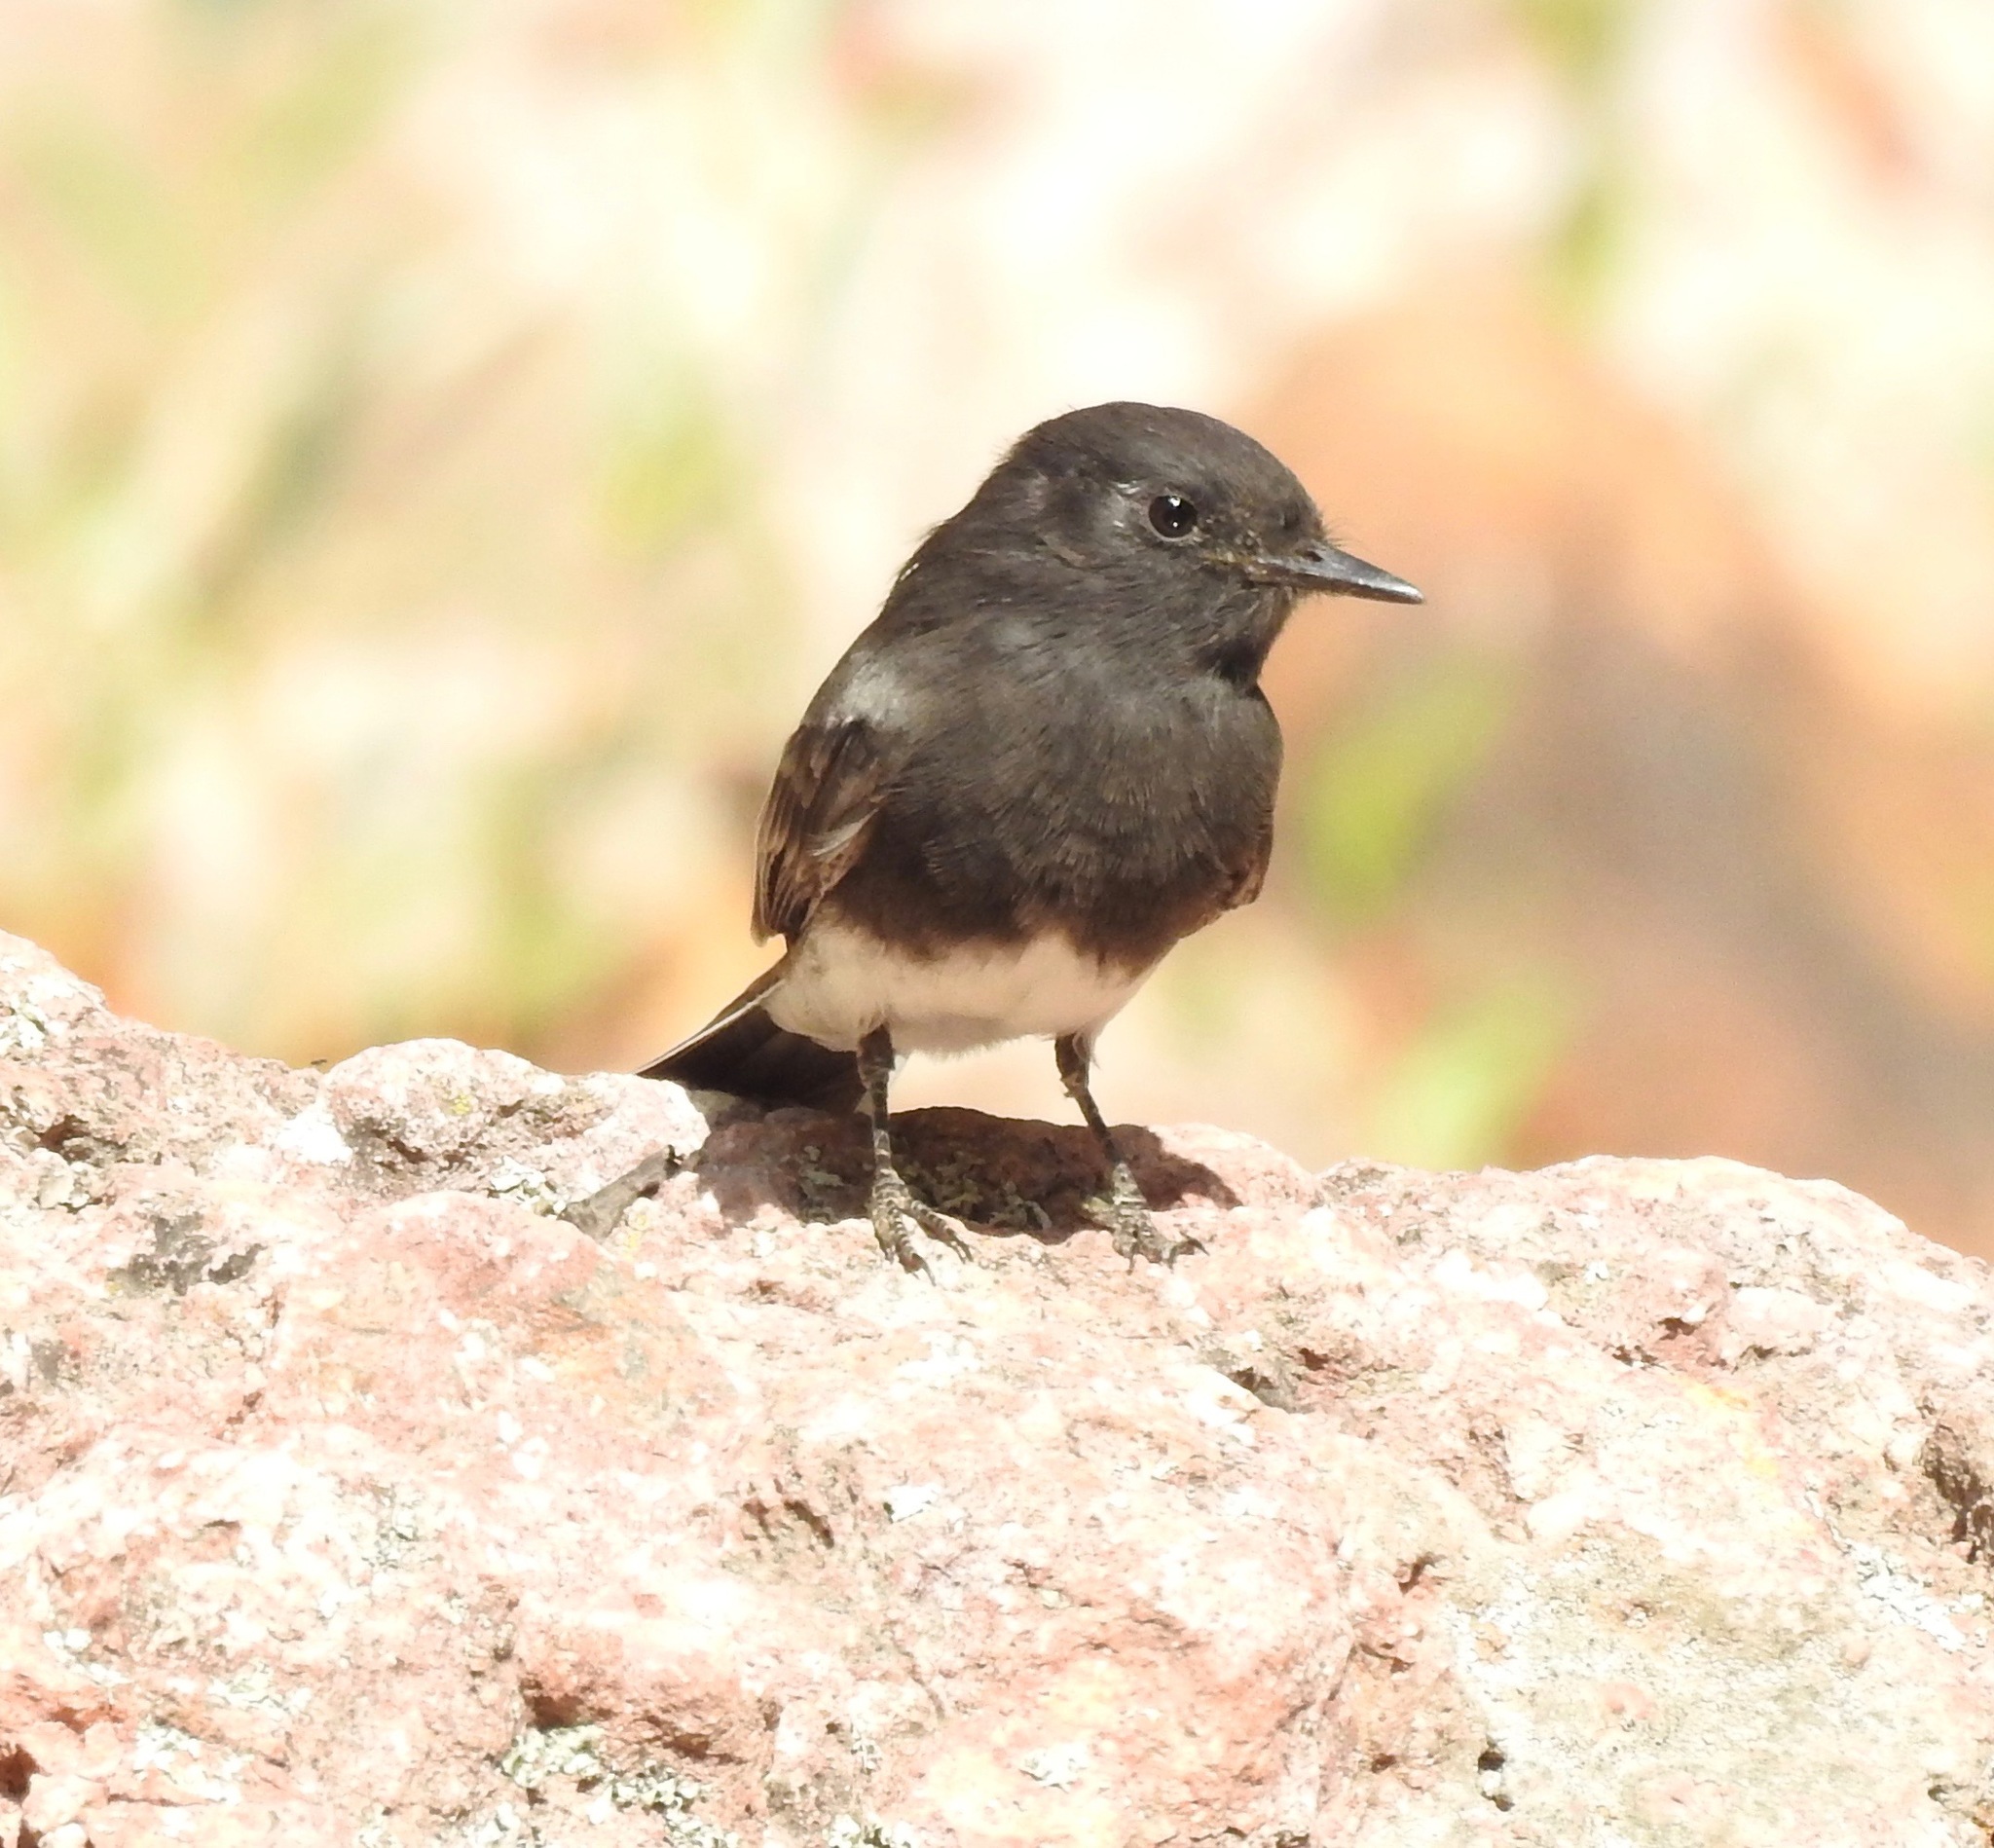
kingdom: Animalia
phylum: Chordata
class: Aves
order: Passeriformes
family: Tyrannidae
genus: Sayornis
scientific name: Sayornis nigricans
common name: Black phoebe
